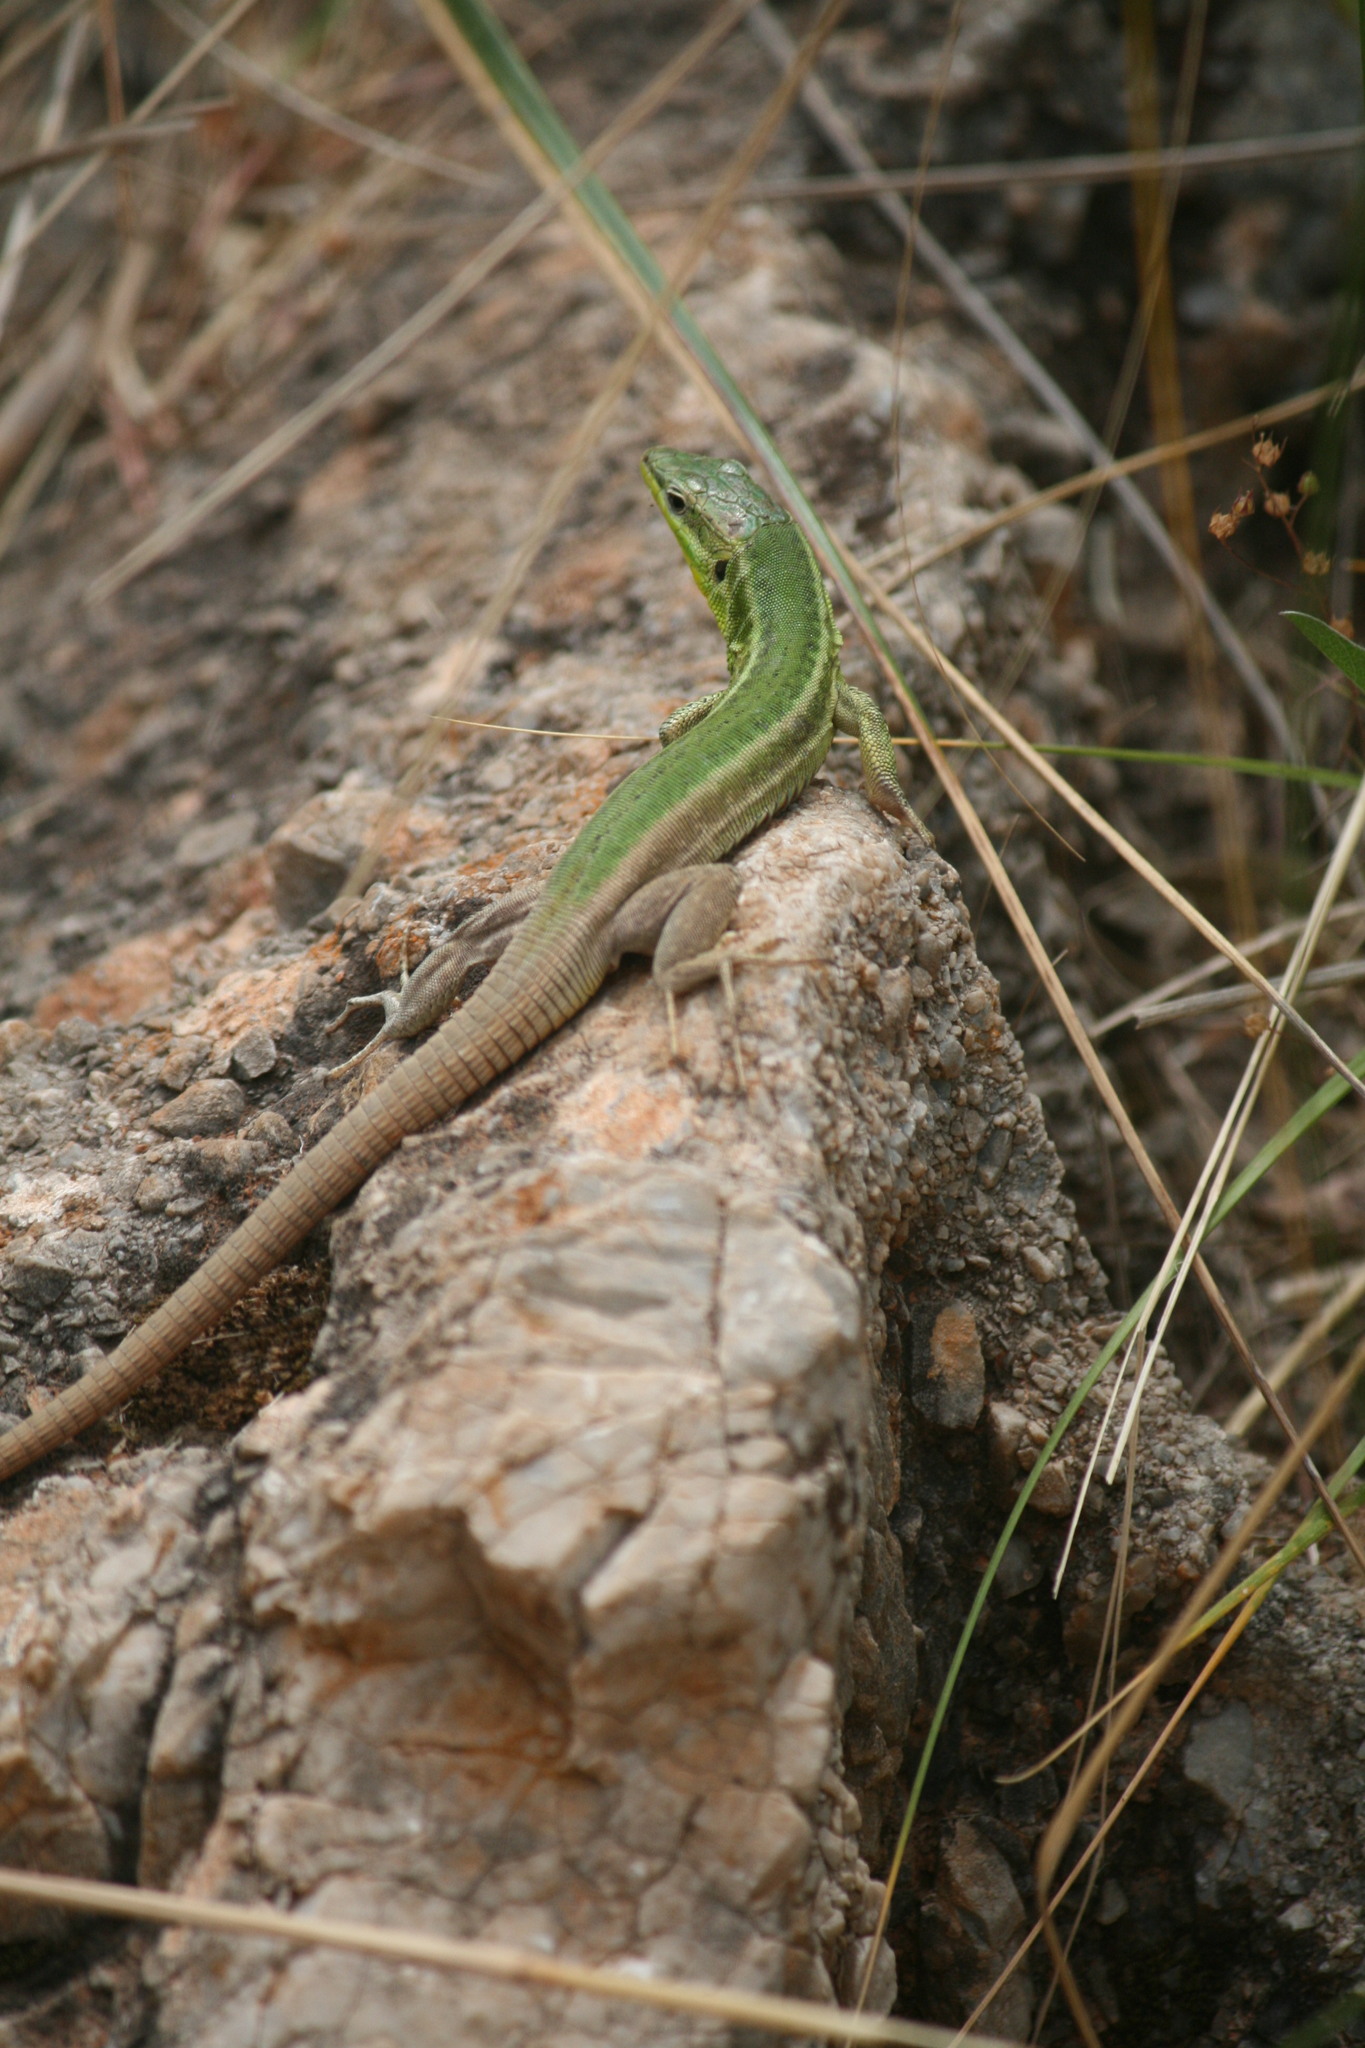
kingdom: Animalia
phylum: Chordata
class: Squamata
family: Lacertidae
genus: Podarcis
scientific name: Podarcis waglerianus
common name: Sicilian wall lizard
